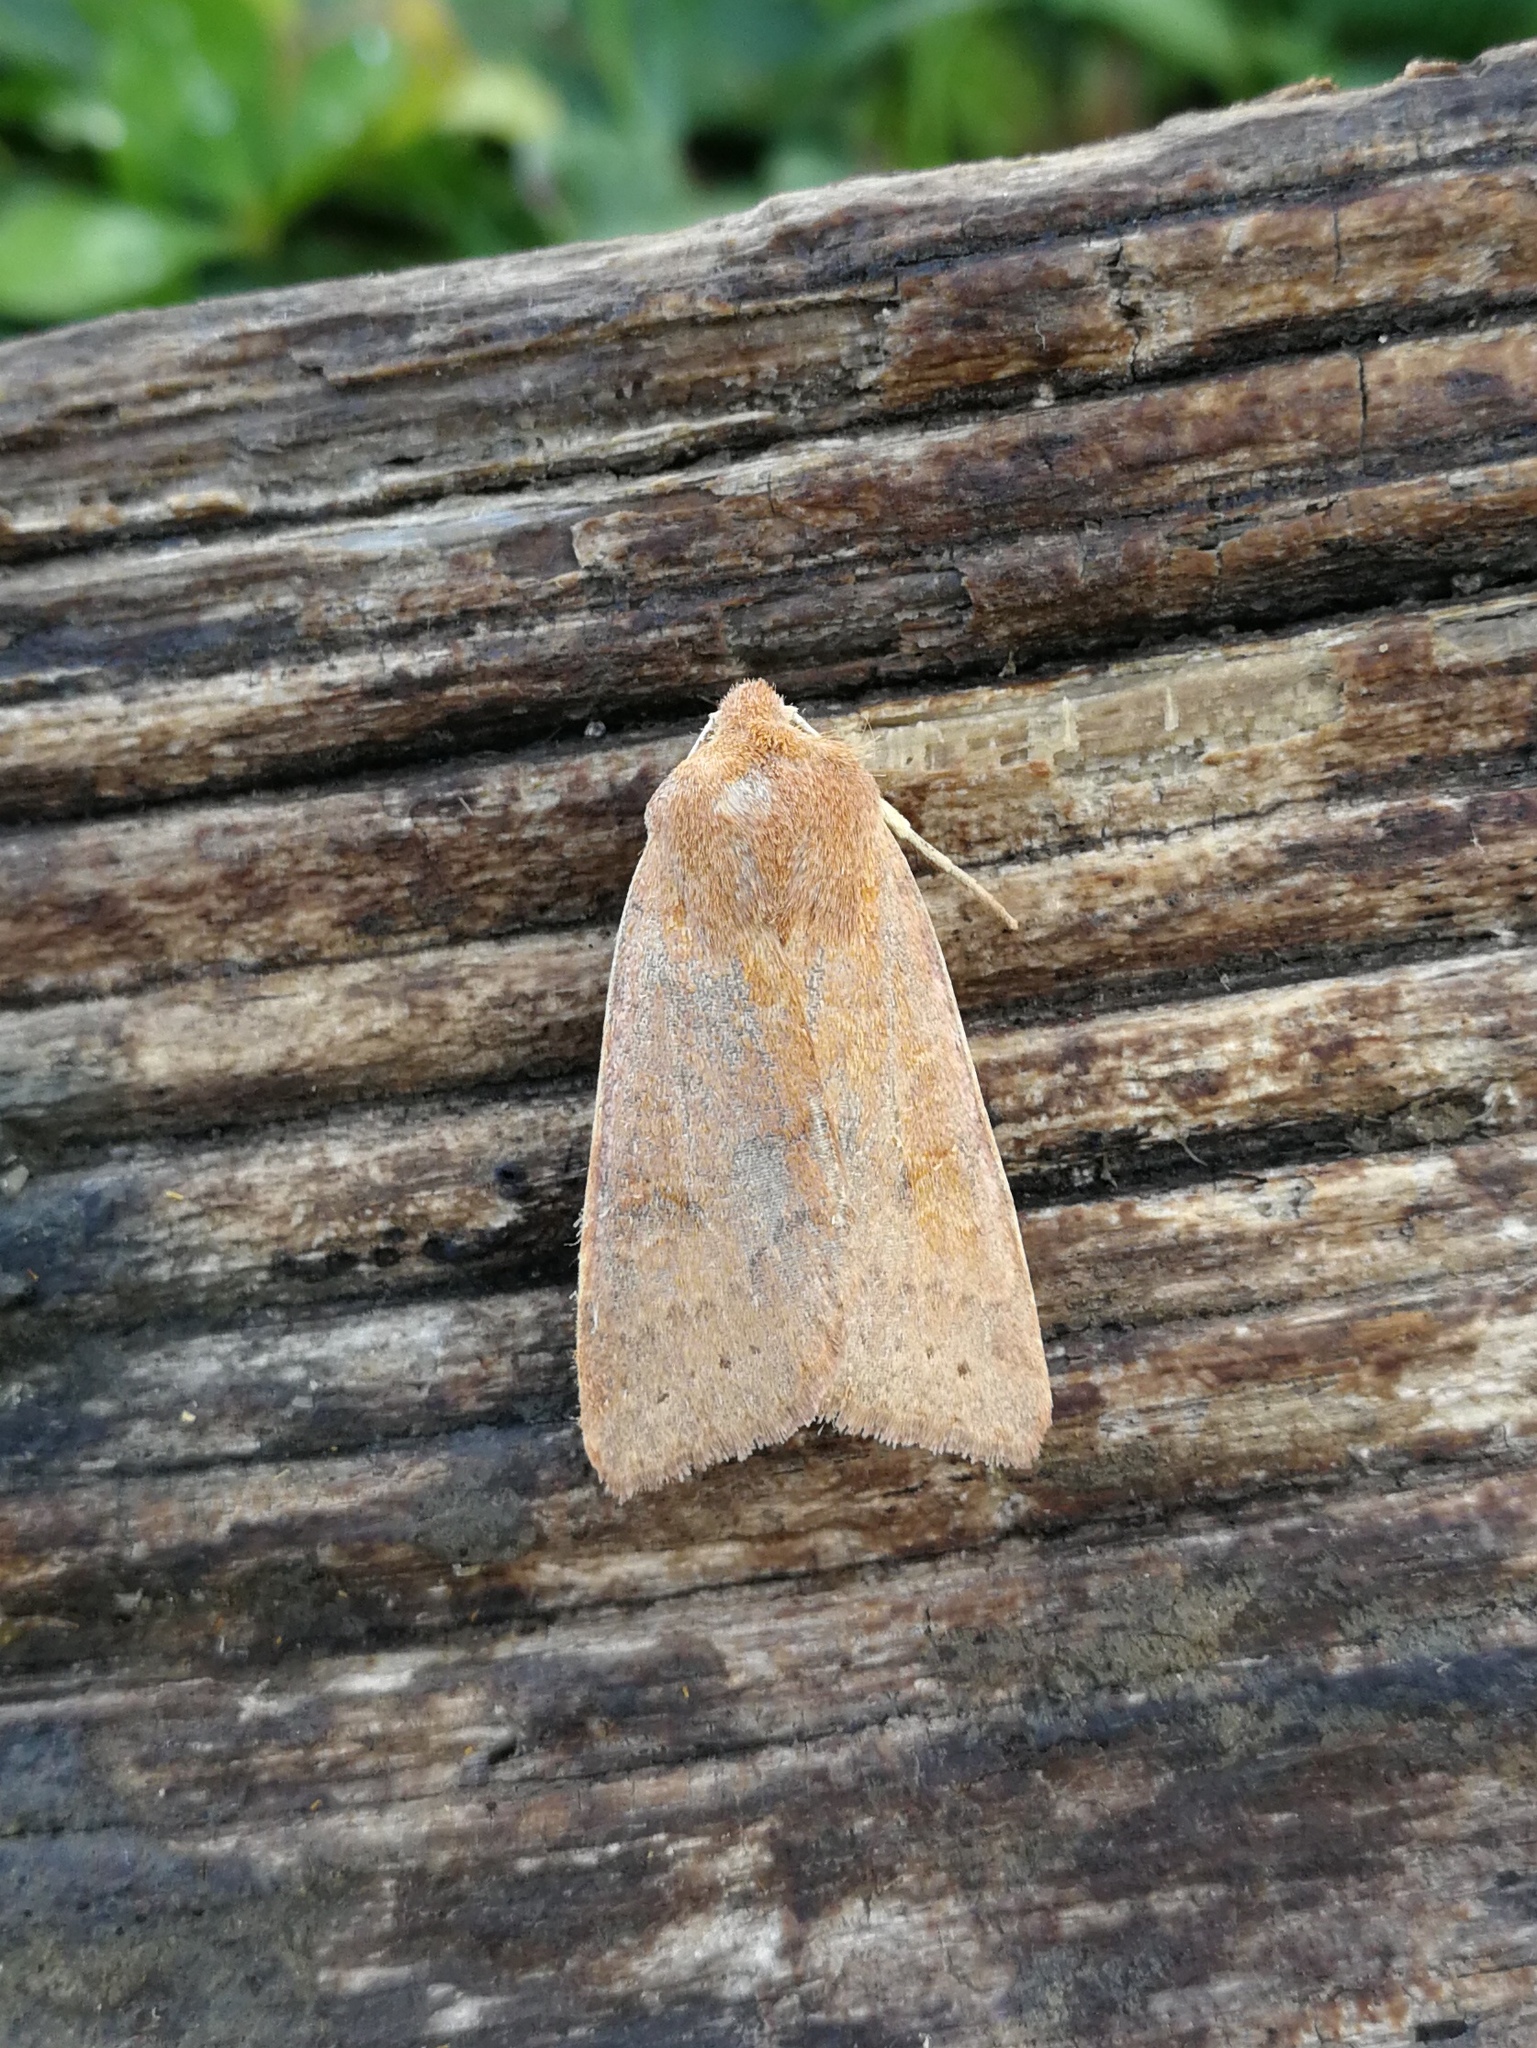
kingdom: Animalia
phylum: Arthropoda
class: Insecta
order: Lepidoptera
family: Noctuidae
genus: Agrochola
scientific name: Agrochola helvola
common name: Flounced chestnut
